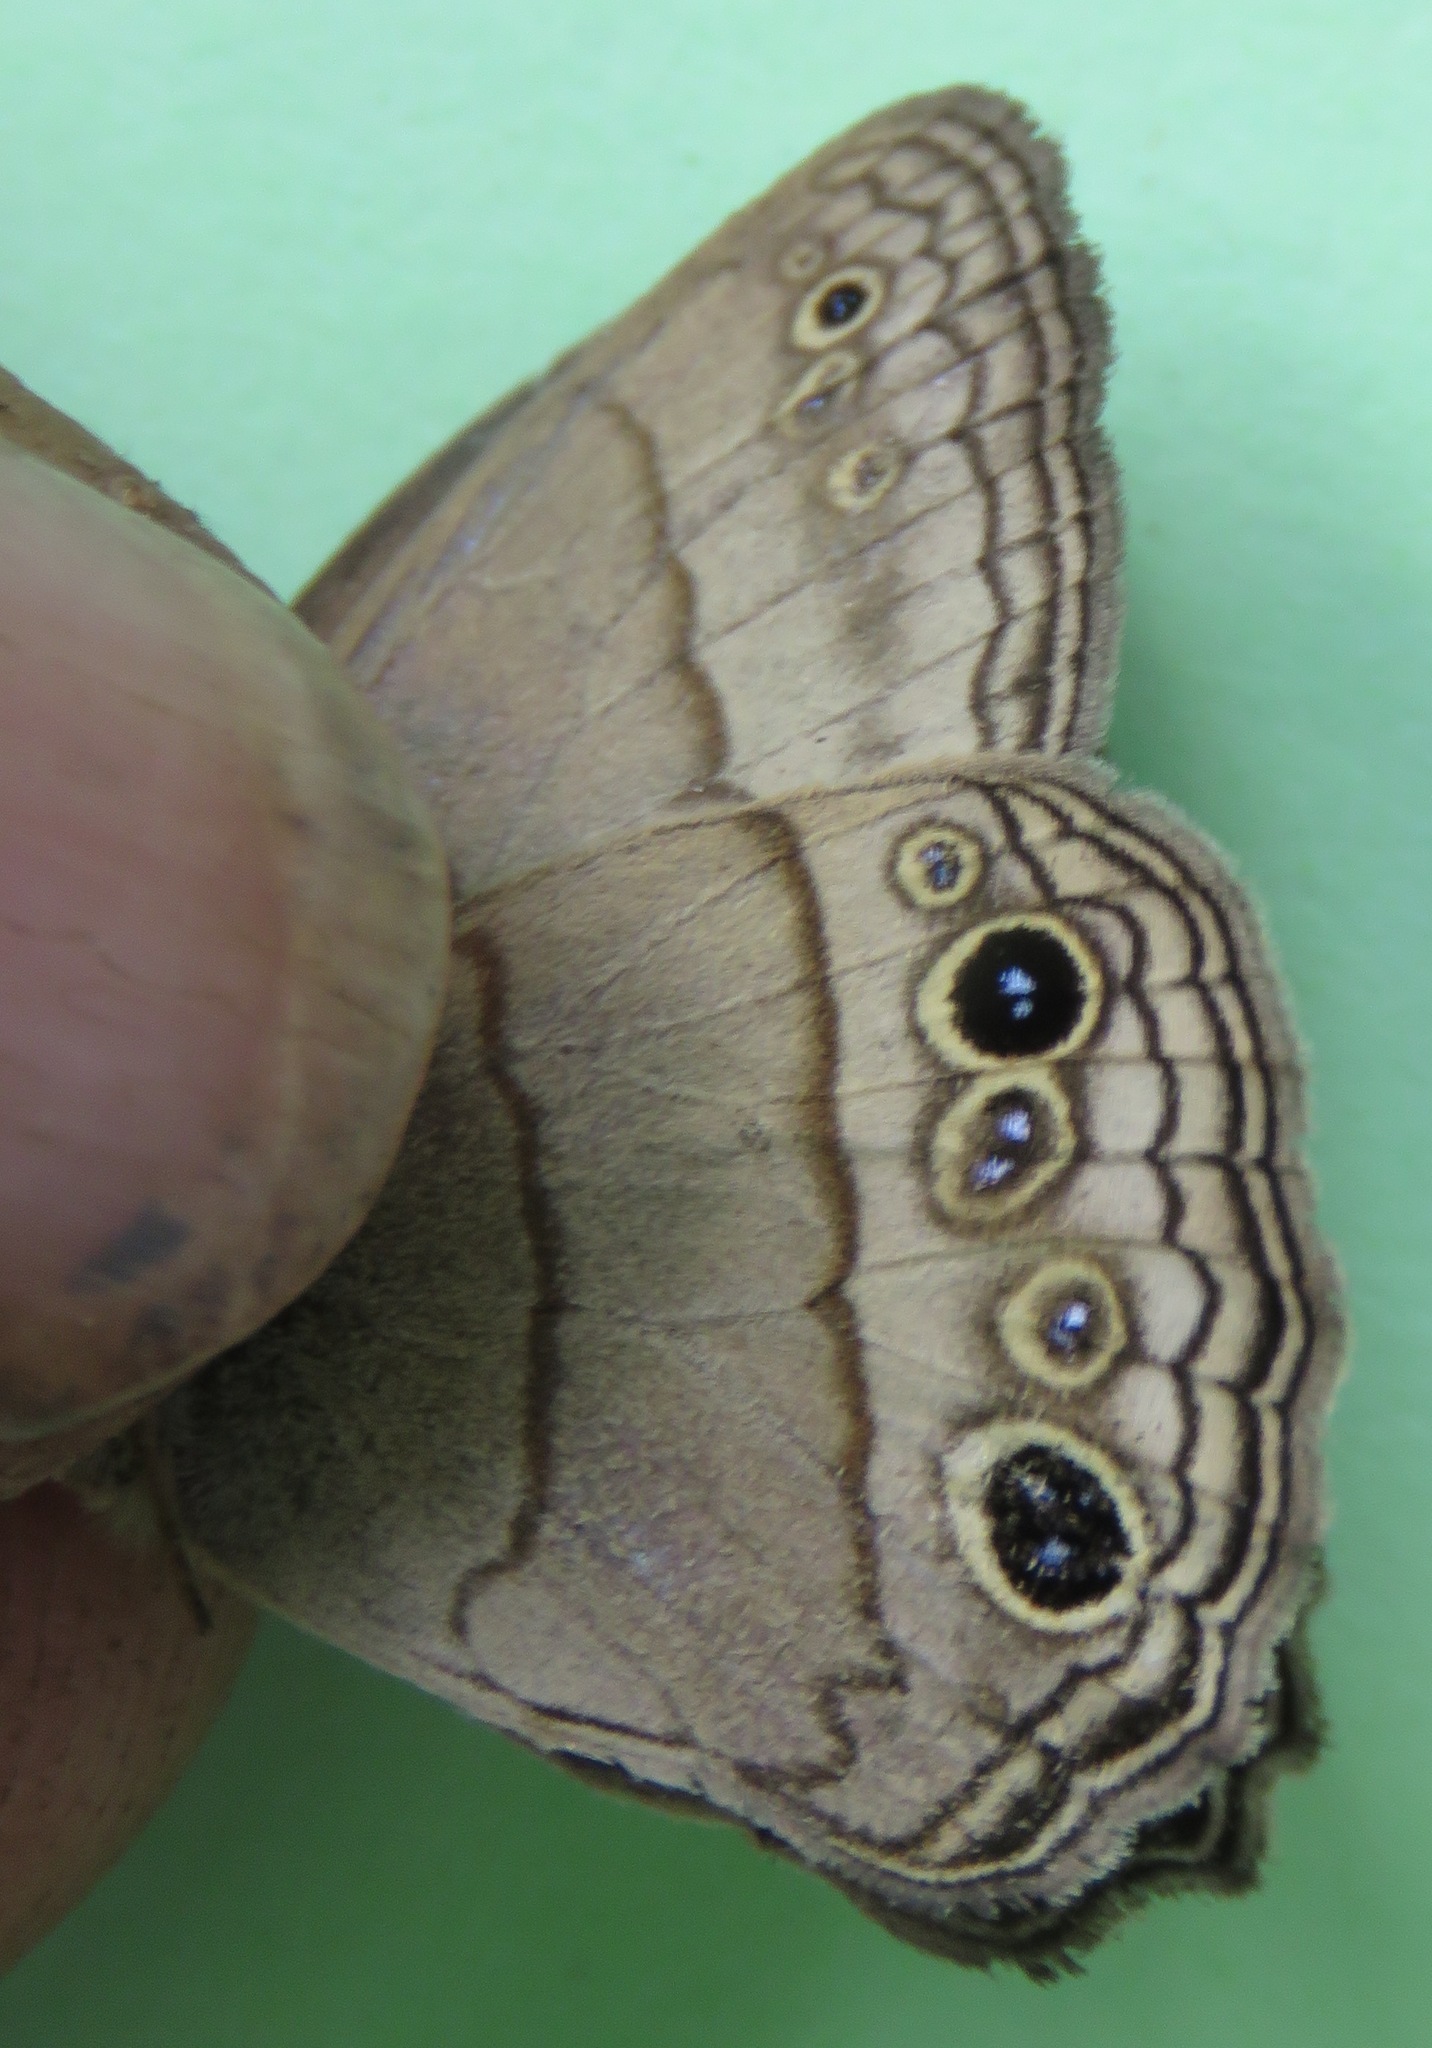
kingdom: Animalia
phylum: Arthropoda
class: Insecta
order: Lepidoptera
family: Nymphalidae
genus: Vareuptychia
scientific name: Vareuptychia similis
